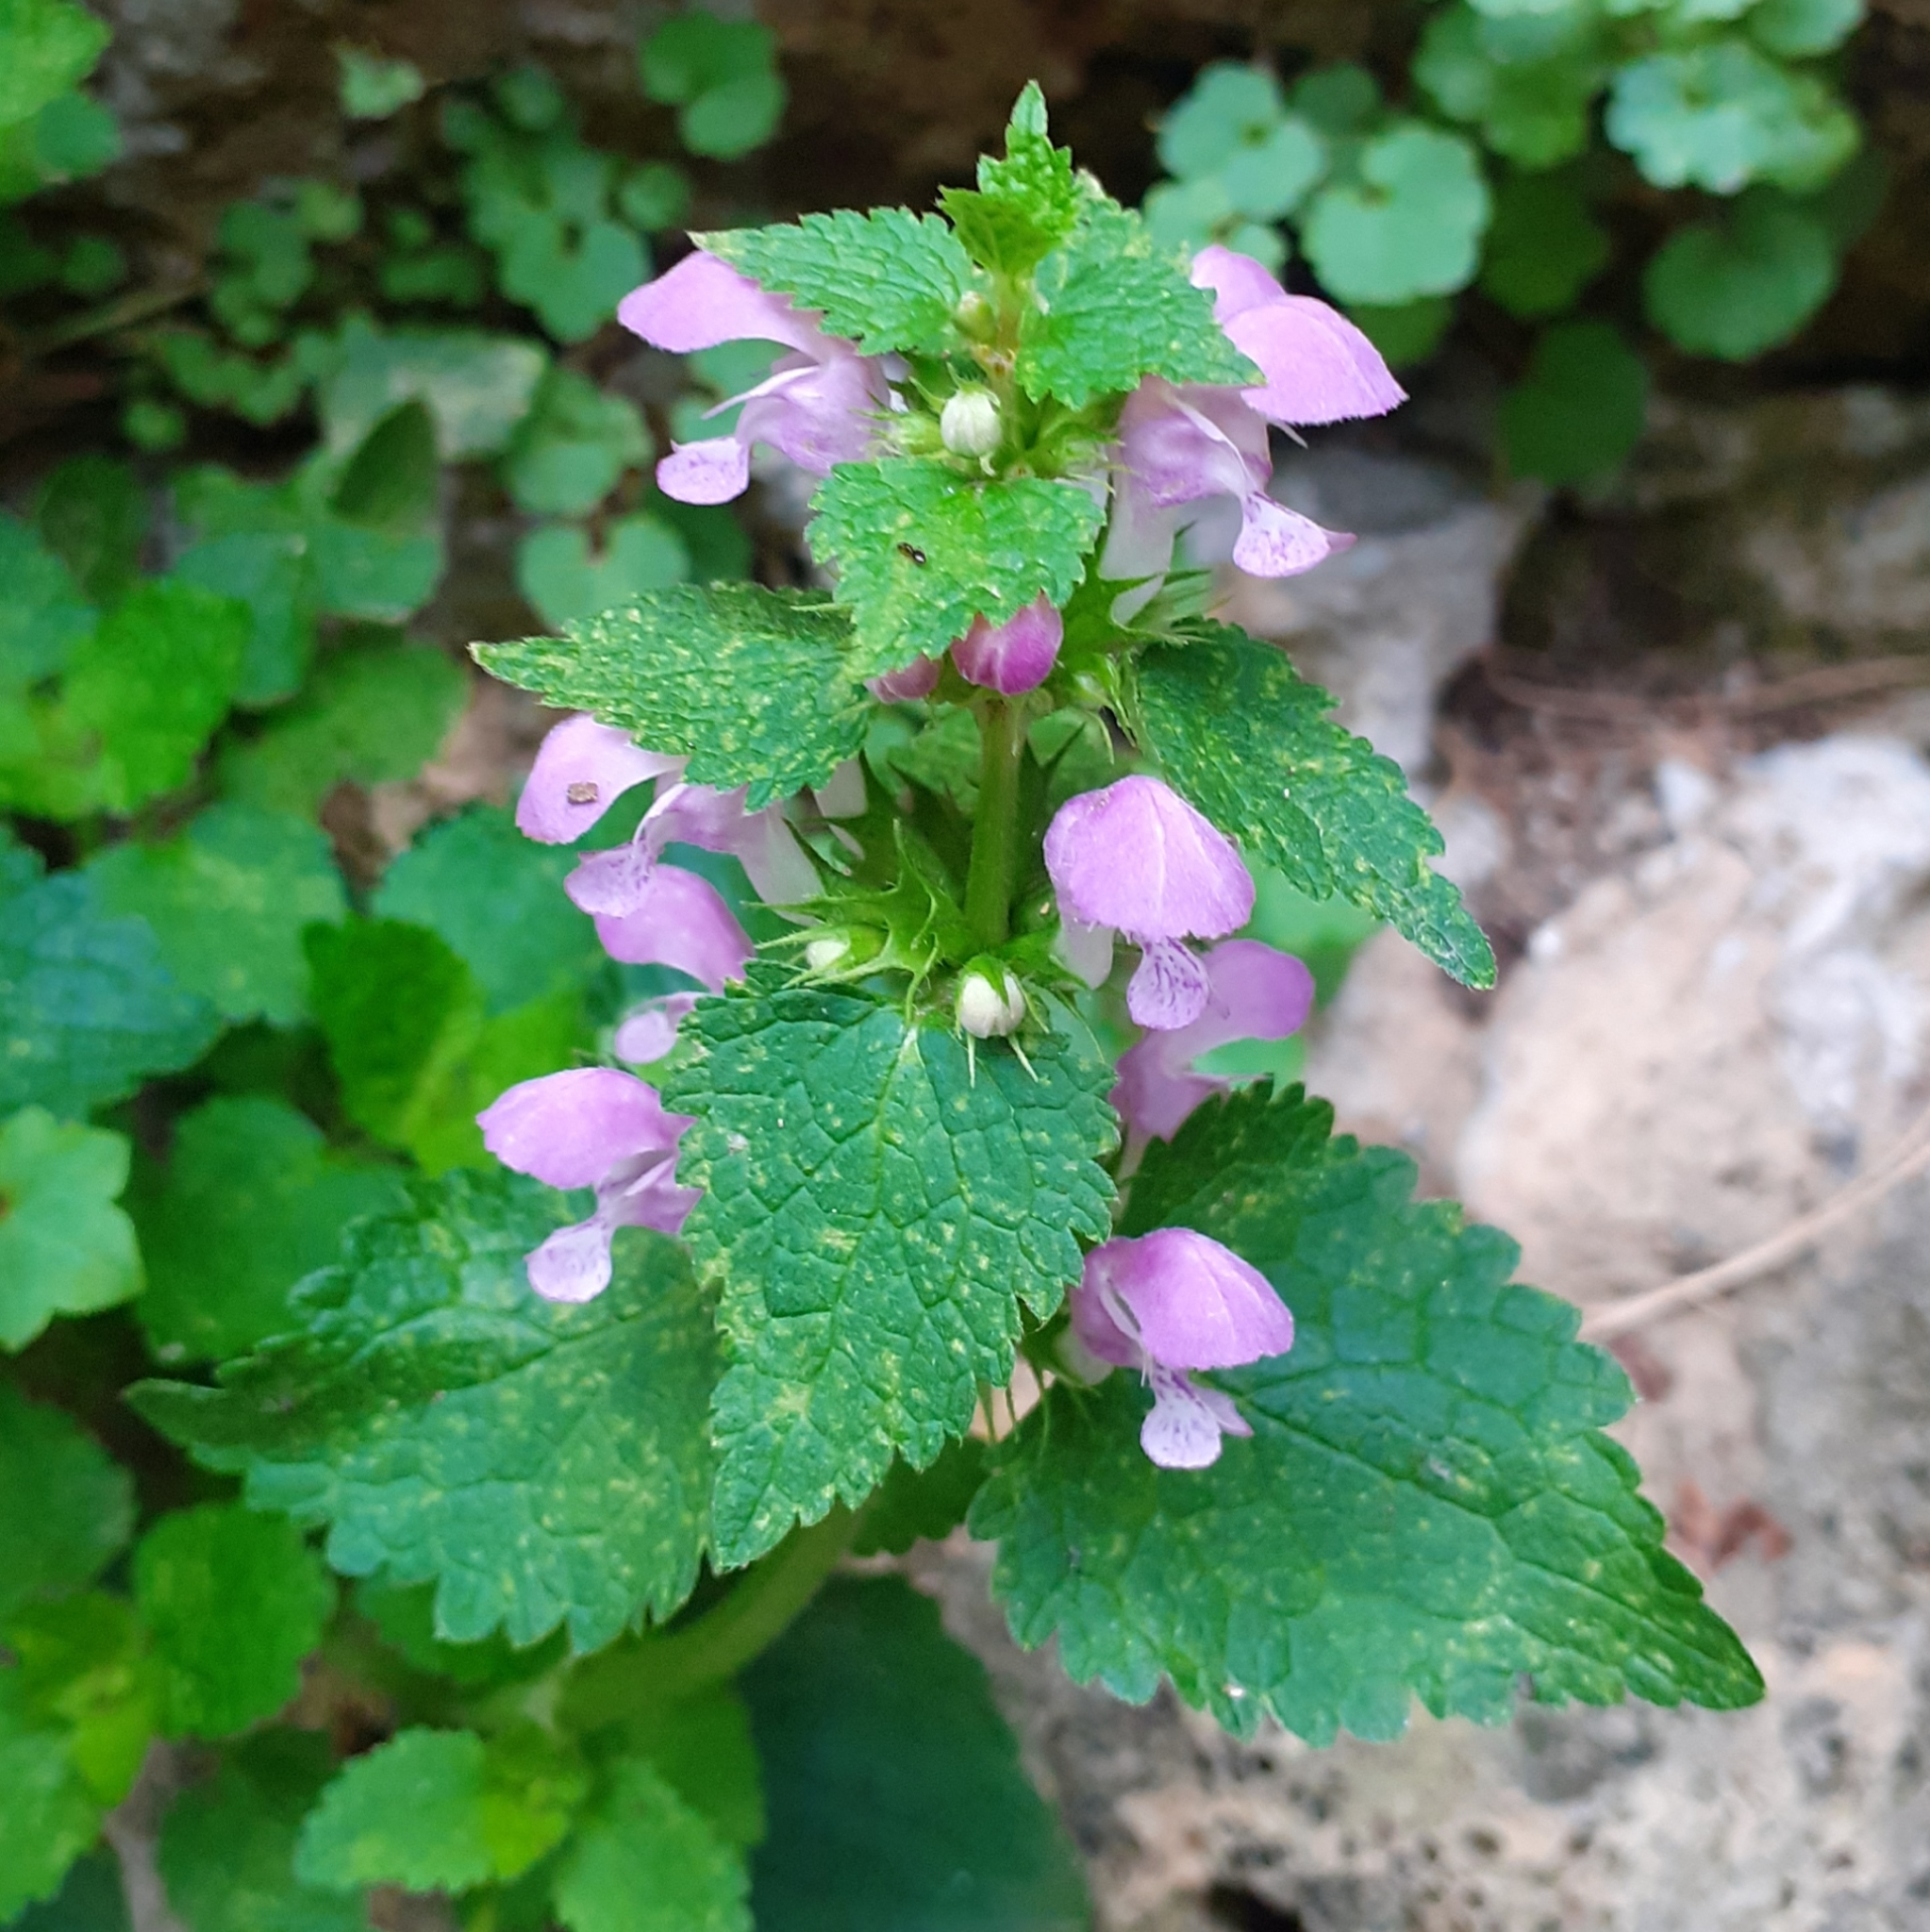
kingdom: Plantae
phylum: Tracheophyta
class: Magnoliopsida
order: Lamiales
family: Lamiaceae
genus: Lamium
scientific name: Lamium maculatum
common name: Spotted dead-nettle
